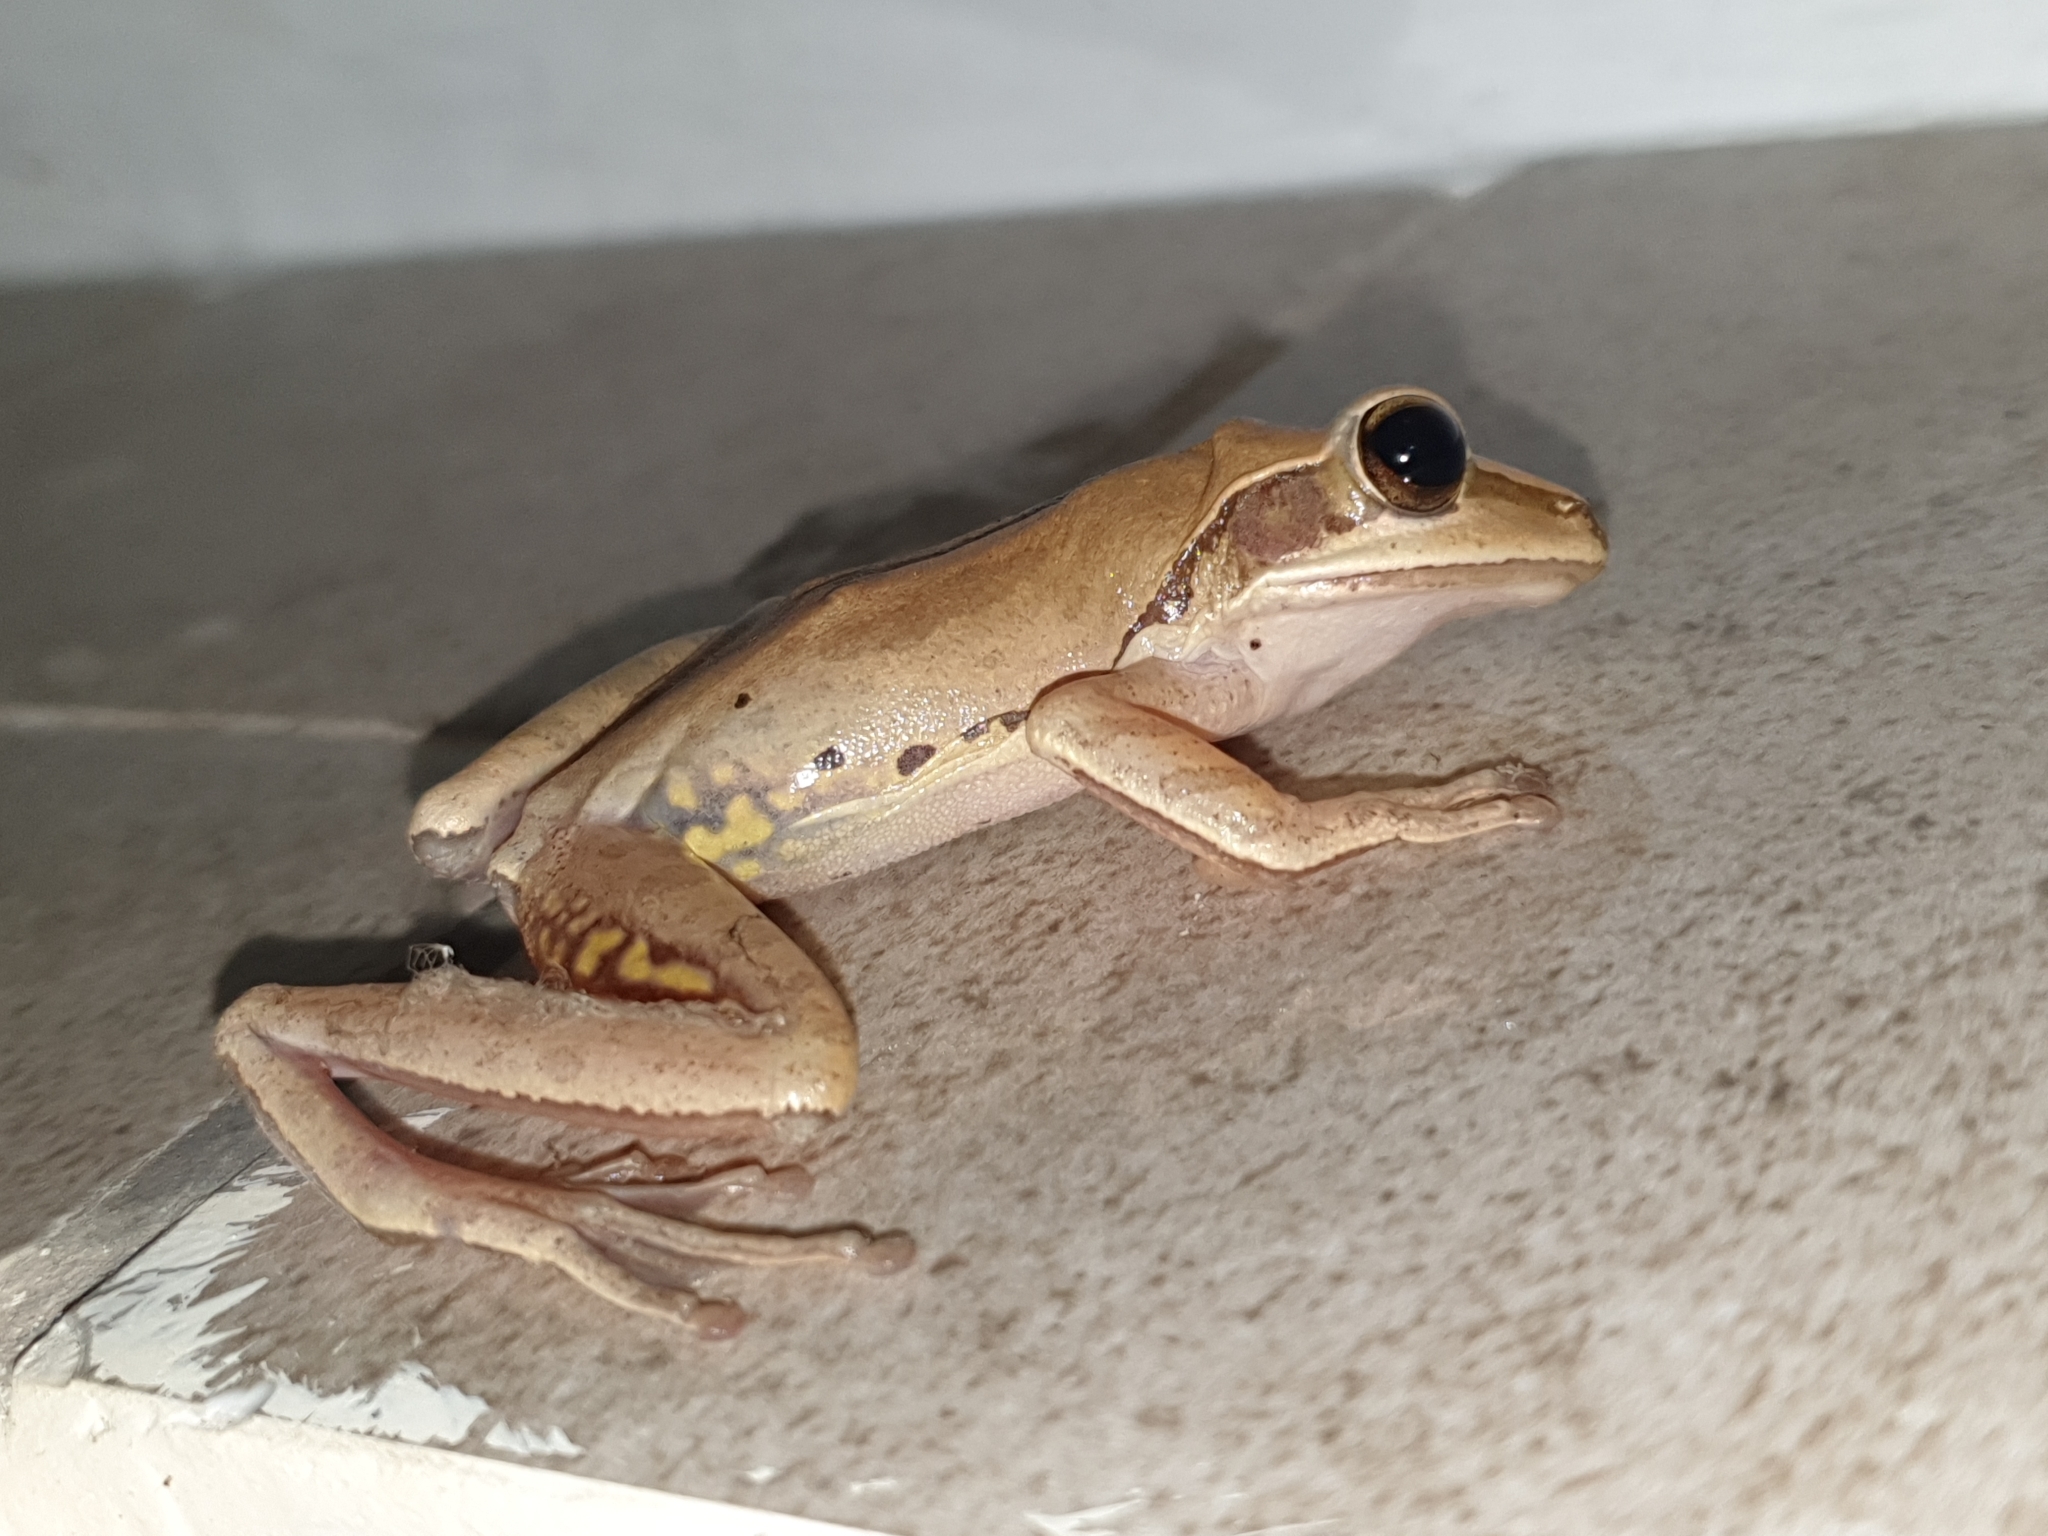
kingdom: Animalia
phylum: Chordata
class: Amphibia
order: Anura
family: Rhacophoridae
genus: Polypedates
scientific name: Polypedates maculatus
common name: Himalayan tree frog
